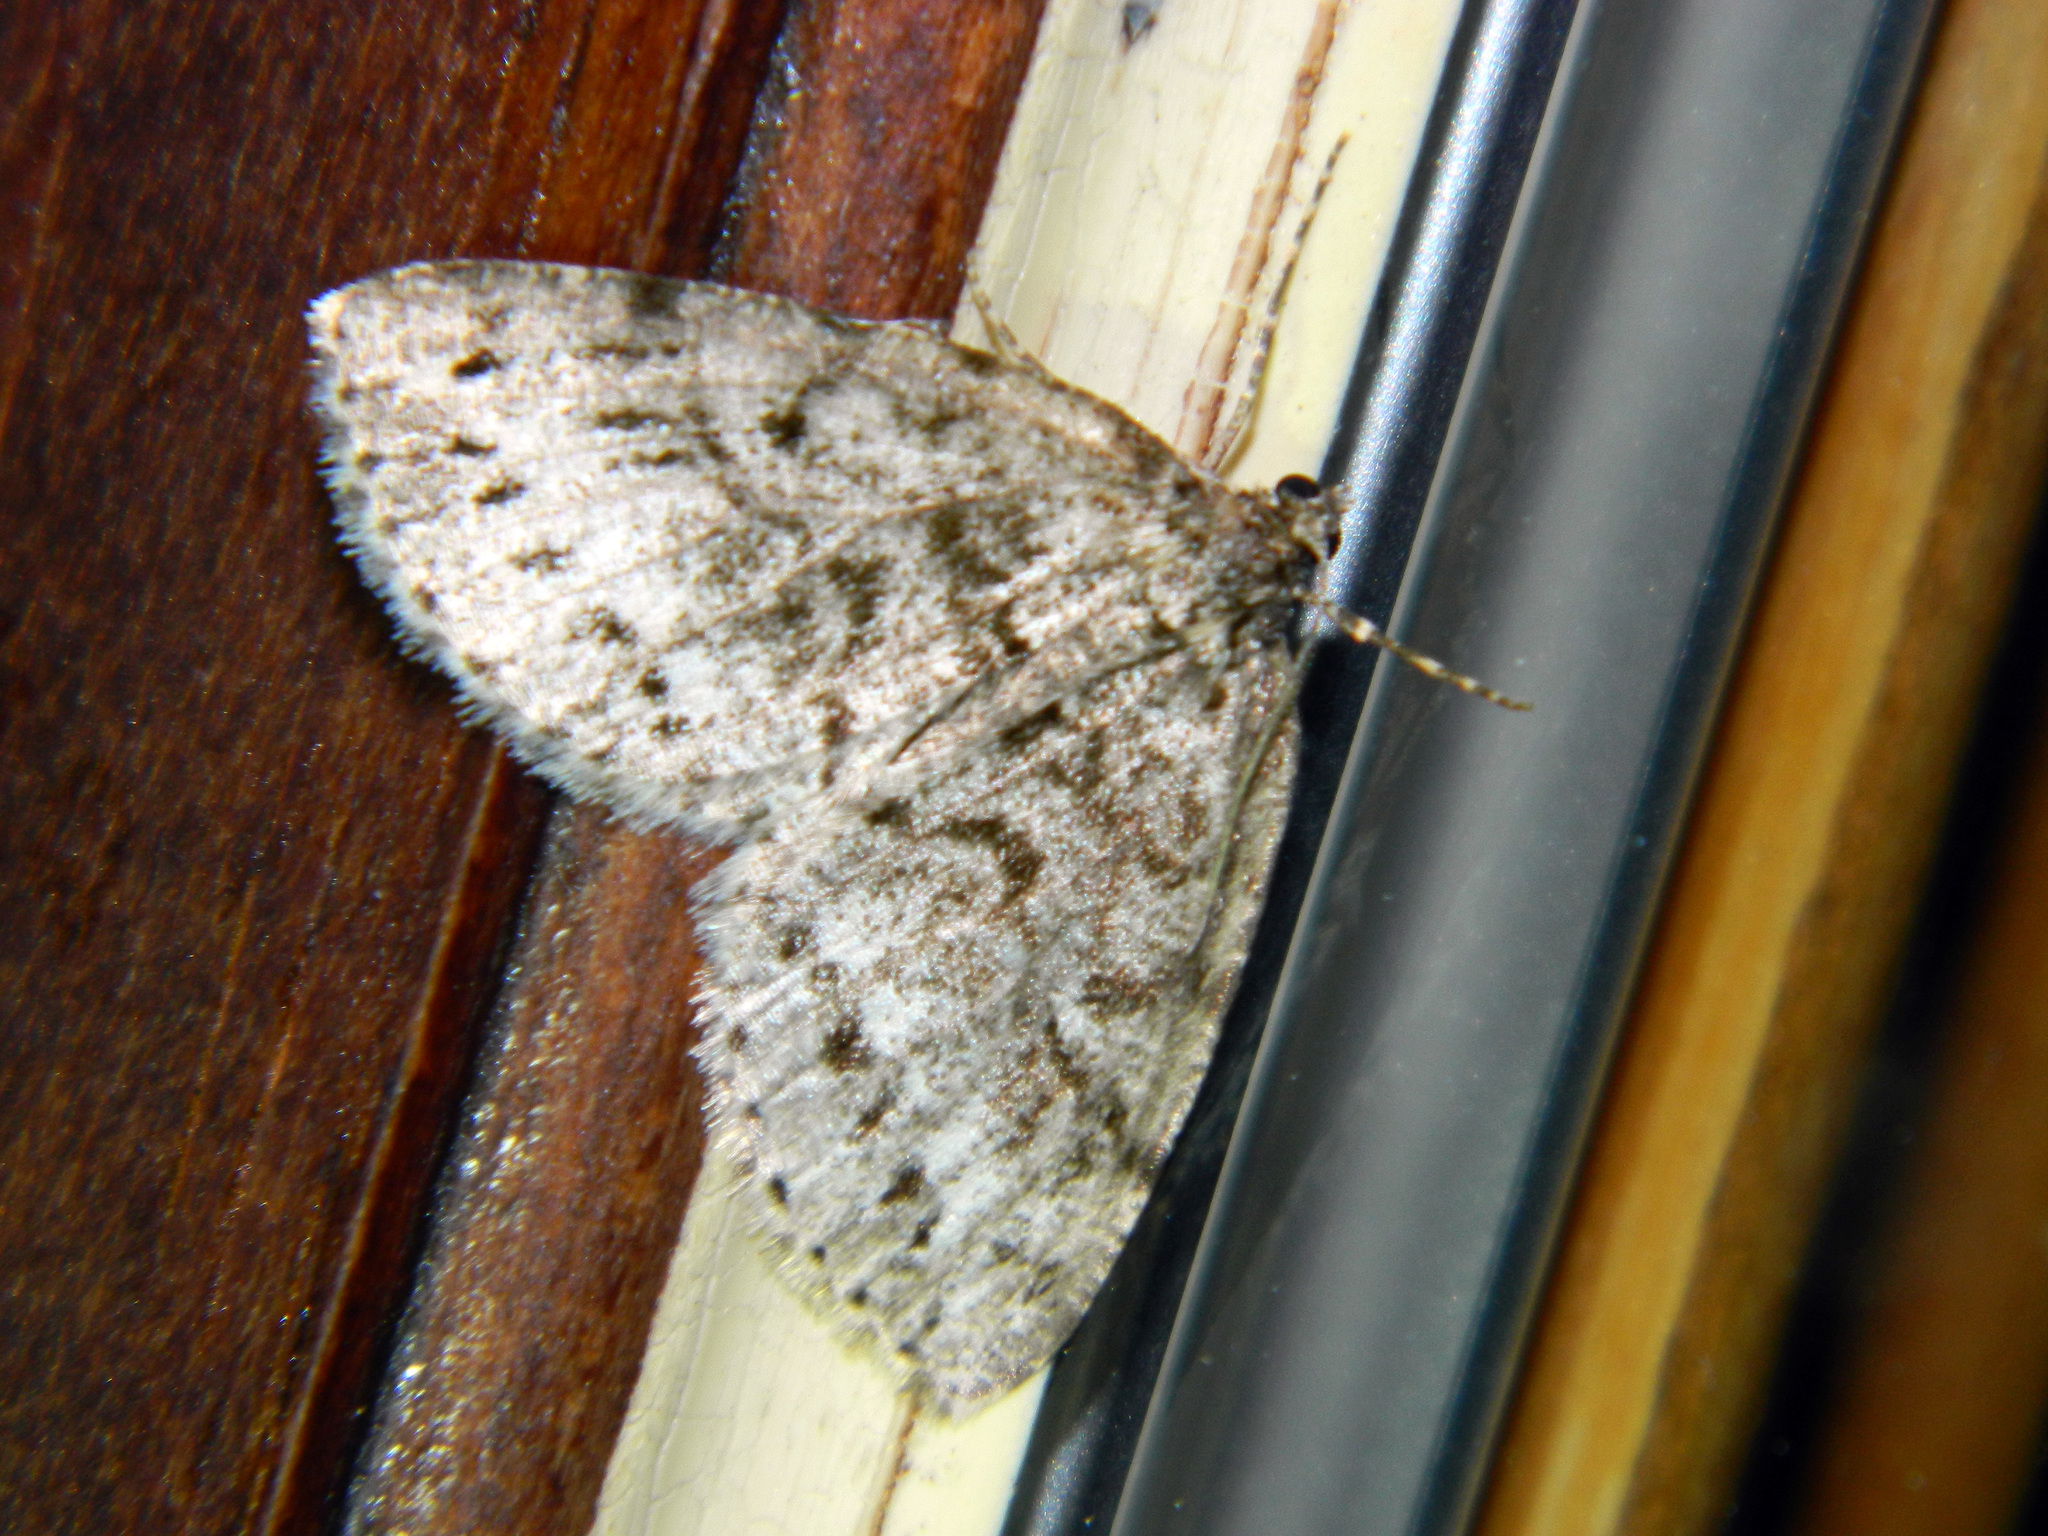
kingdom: Animalia
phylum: Arthropoda
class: Insecta
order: Lepidoptera
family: Geometridae
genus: Orthofidonia
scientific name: Orthofidonia exornata
